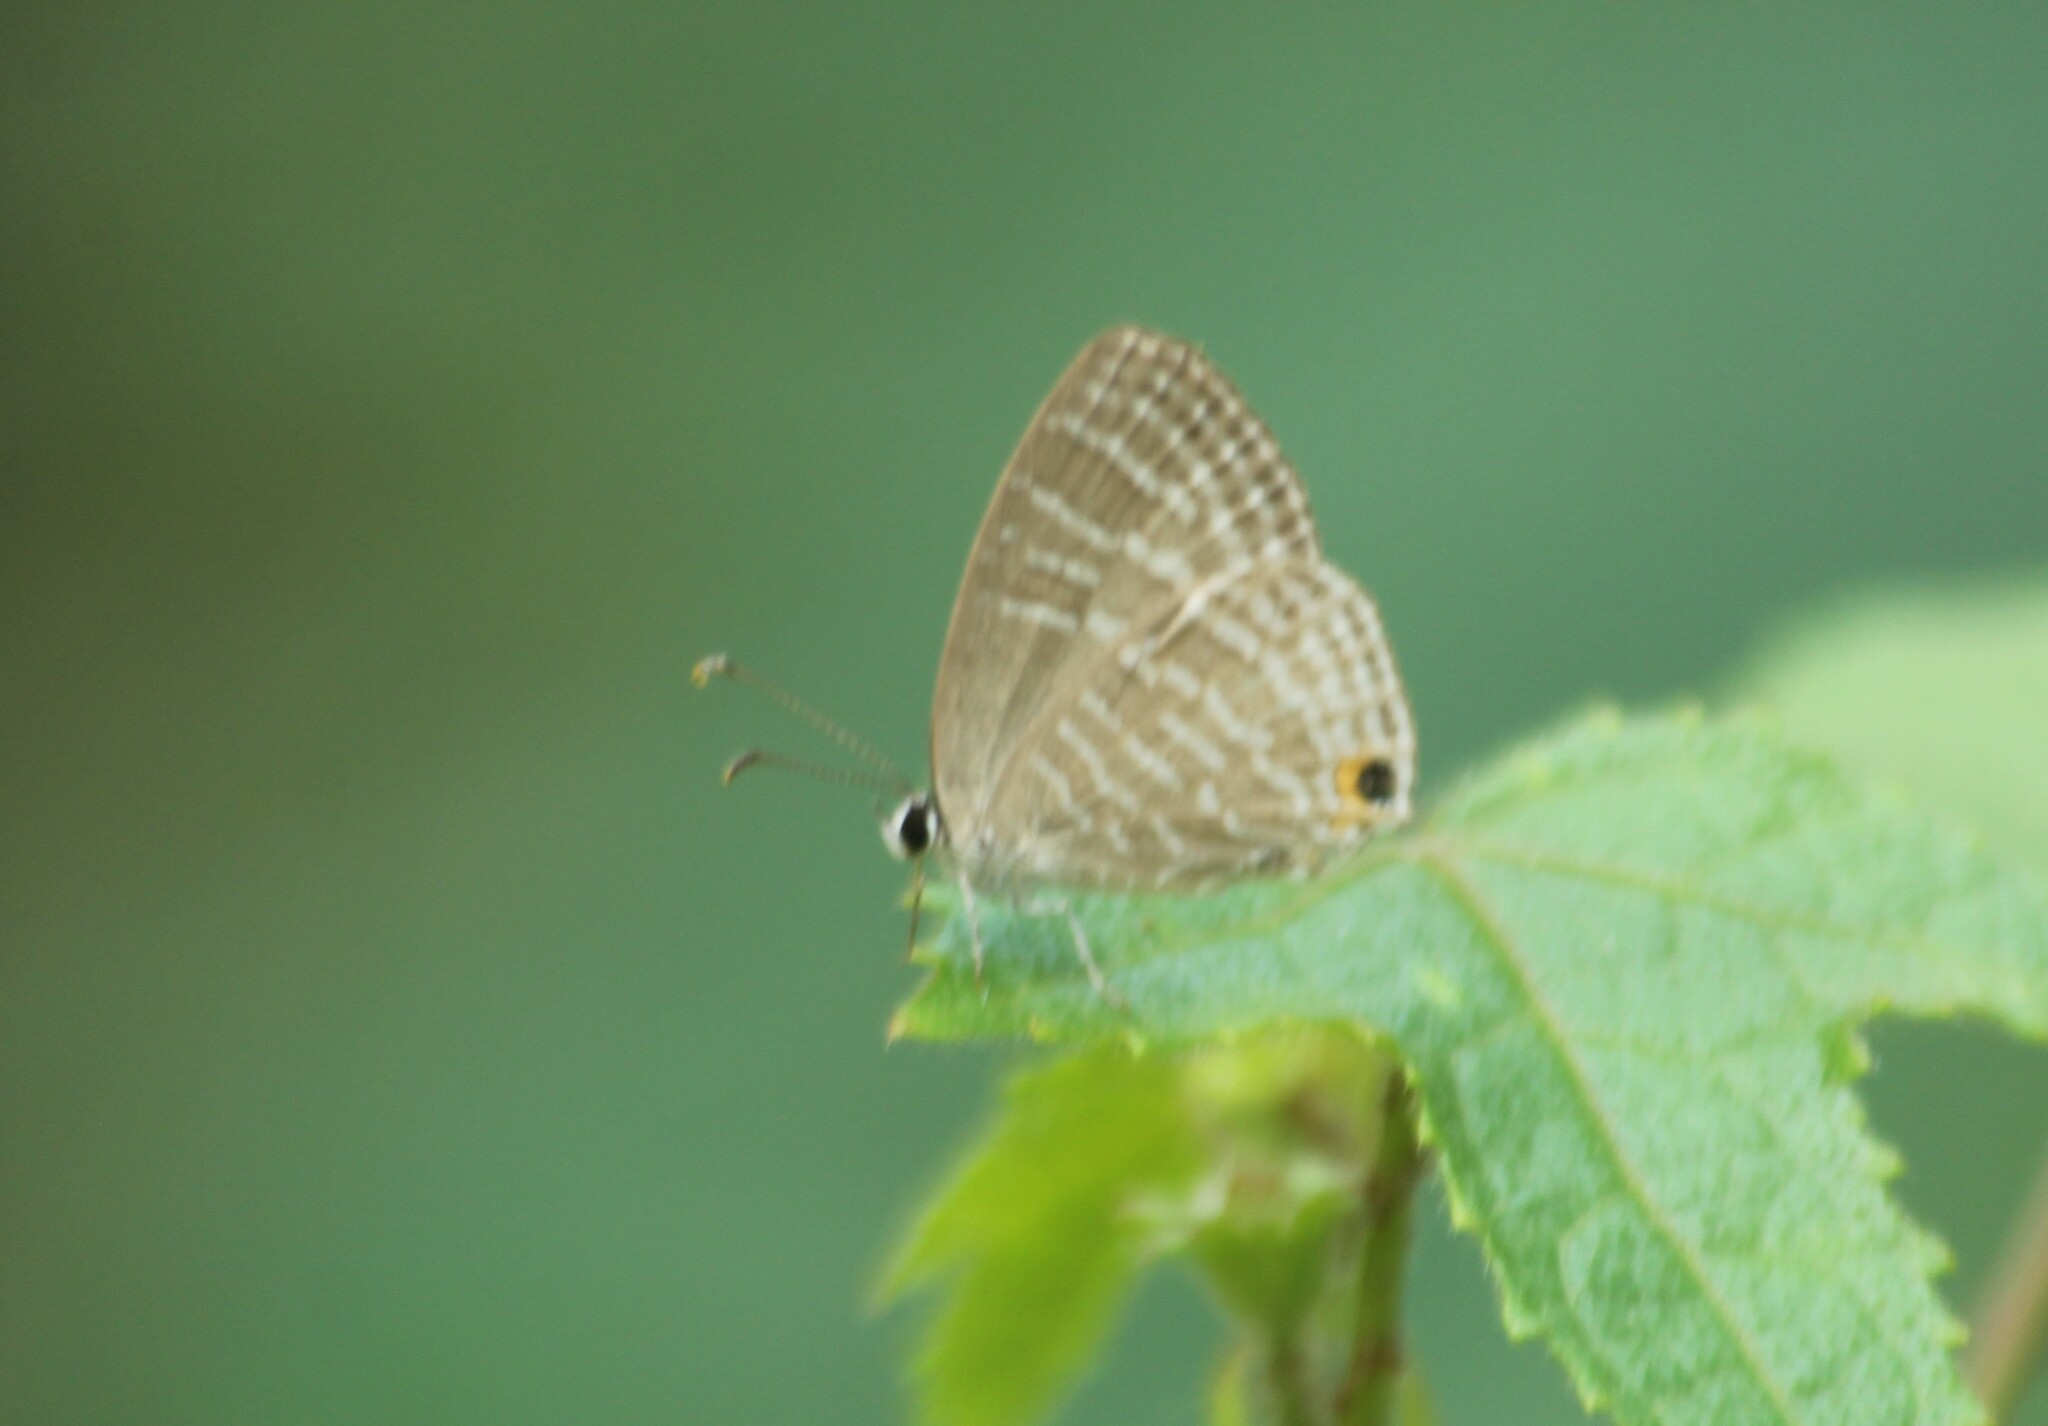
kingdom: Animalia
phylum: Arthropoda
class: Insecta
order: Lepidoptera
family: Lycaenidae
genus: Jamides
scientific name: Jamides celeno
